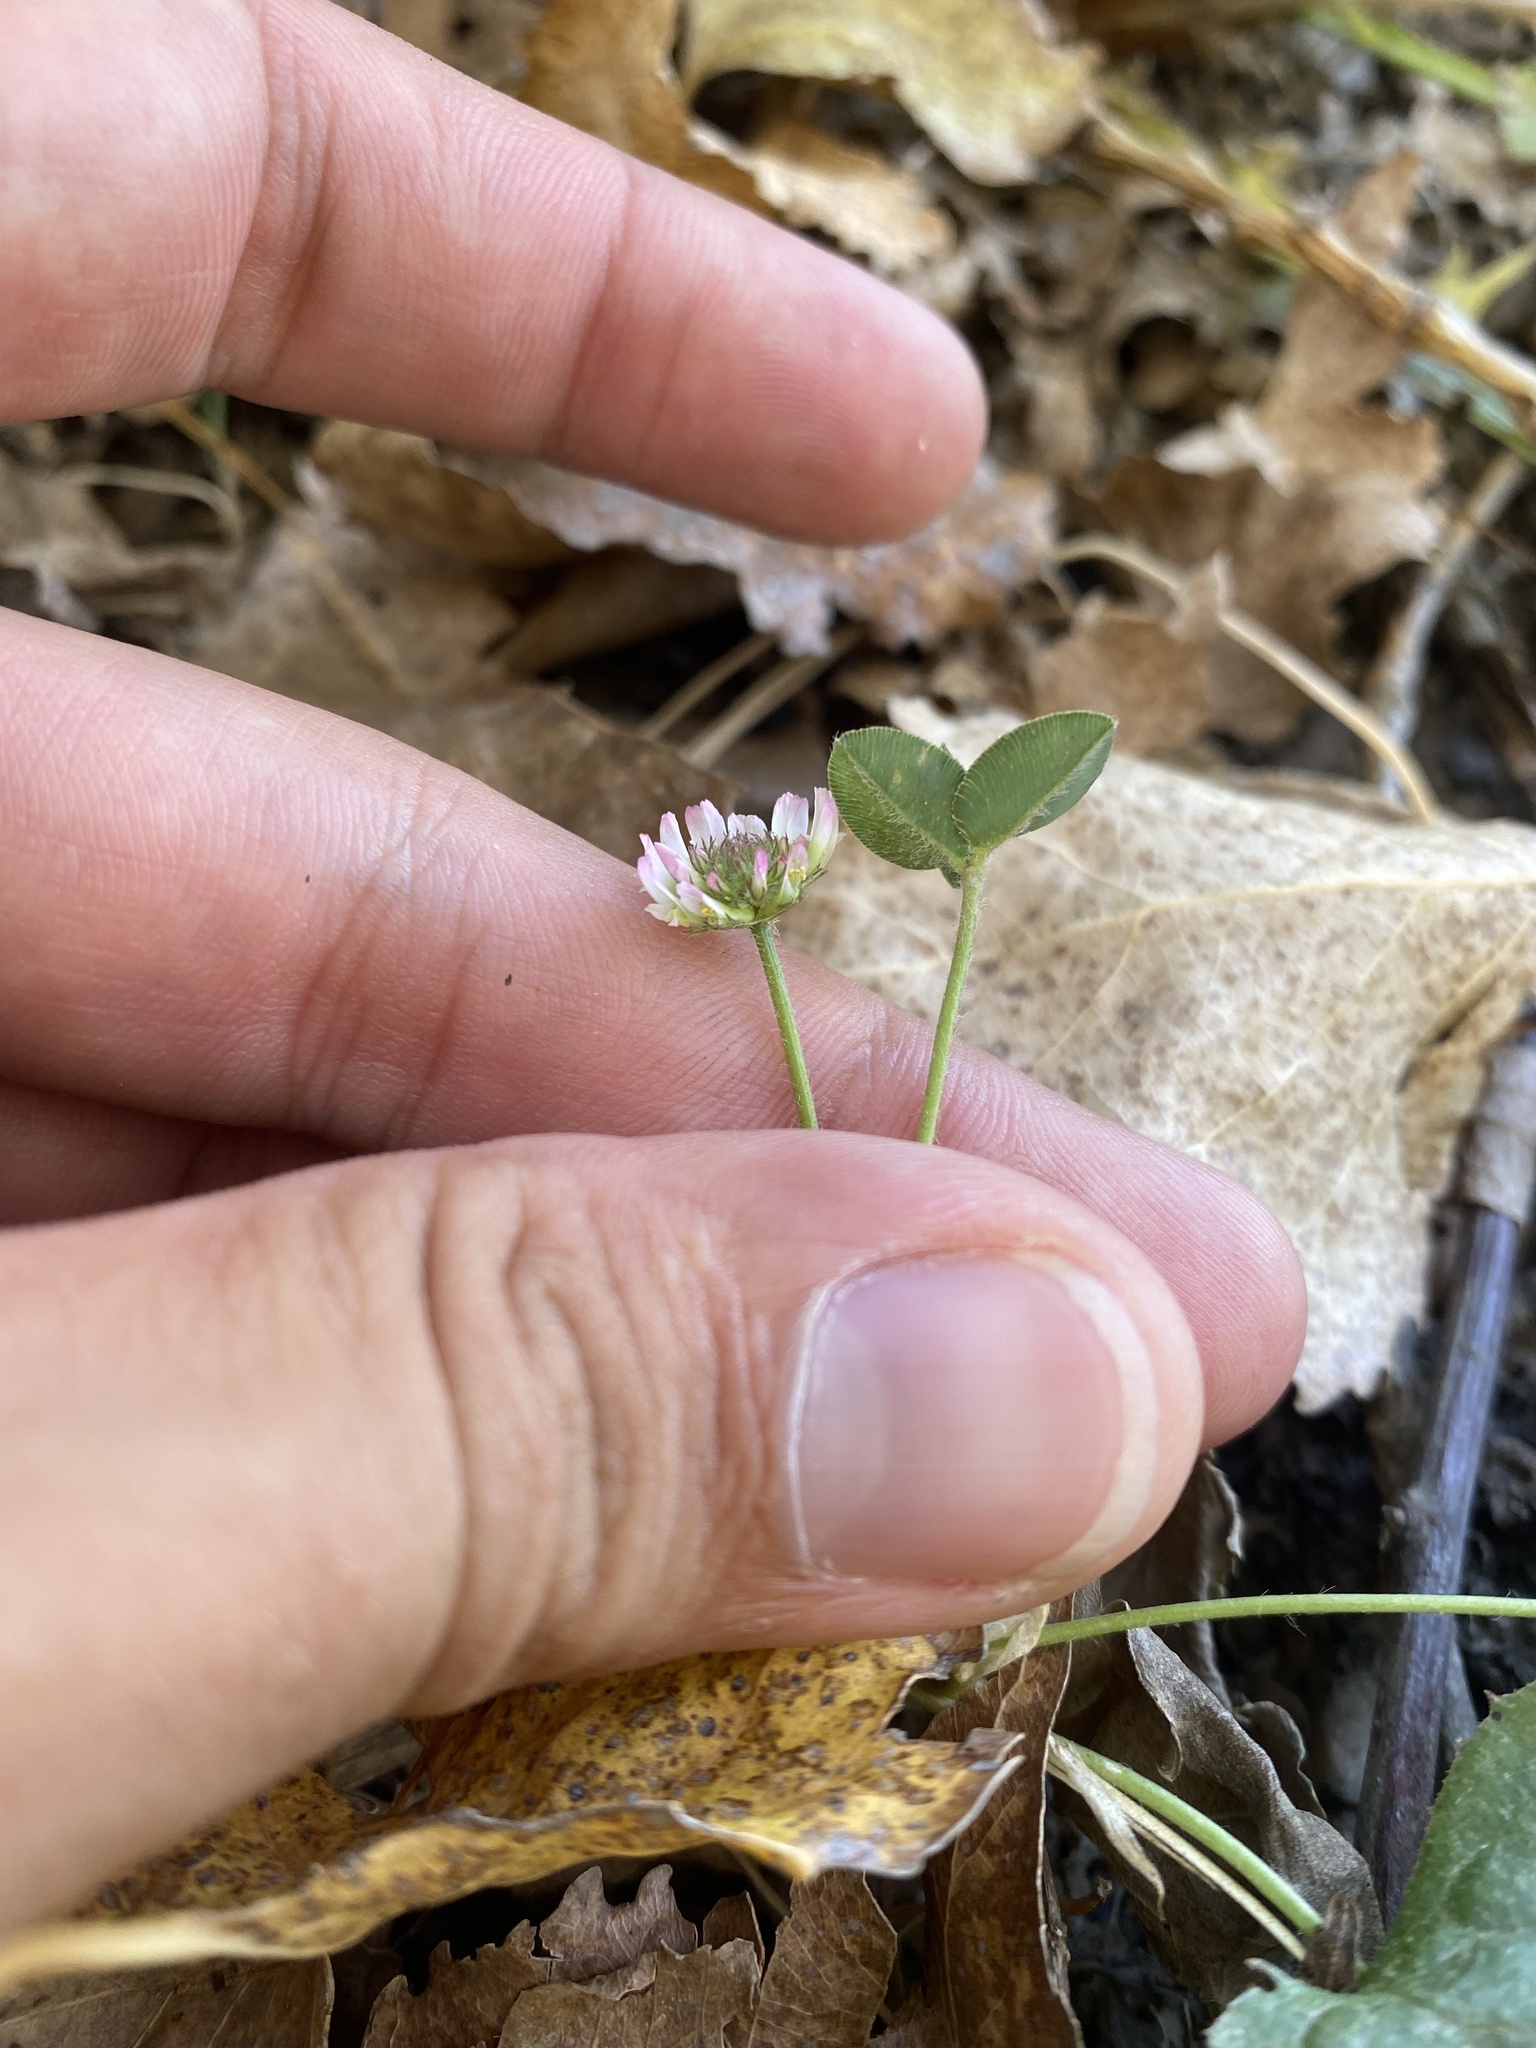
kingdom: Plantae
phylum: Tracheophyta
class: Magnoliopsida
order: Fabales
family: Fabaceae
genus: Trifolium
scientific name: Trifolium fragiferum
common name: Strawberry clover
